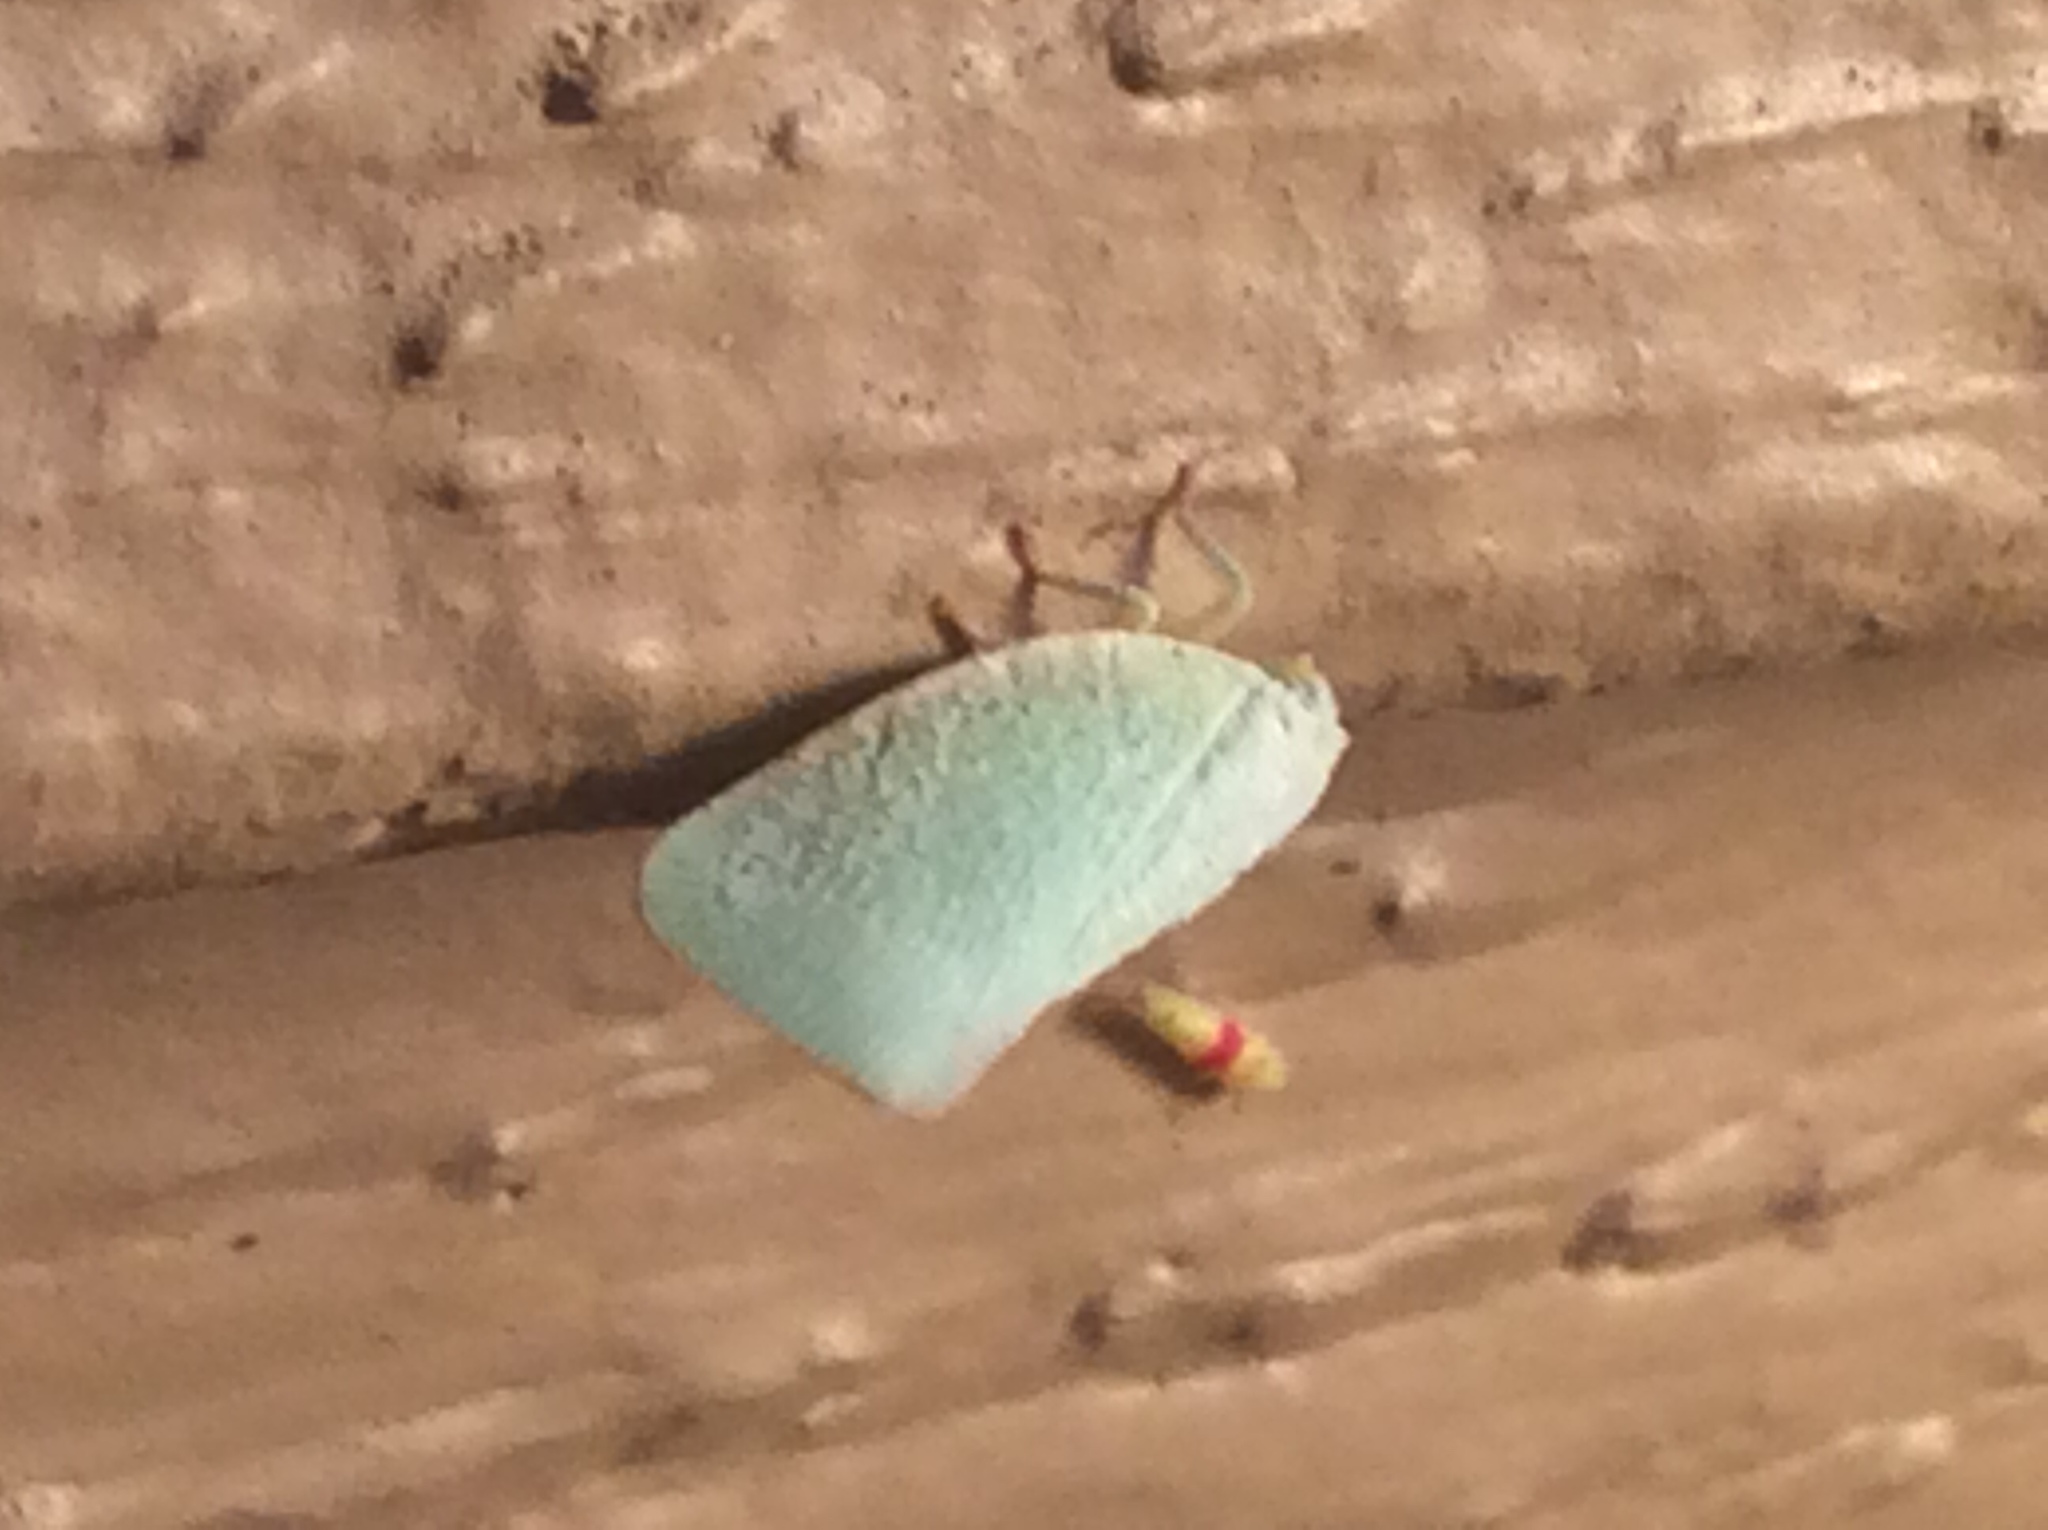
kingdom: Animalia
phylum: Arthropoda
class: Insecta
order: Hemiptera
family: Flatidae
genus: Flatormenis
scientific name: Flatormenis proxima
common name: Northern flatid planthopper
